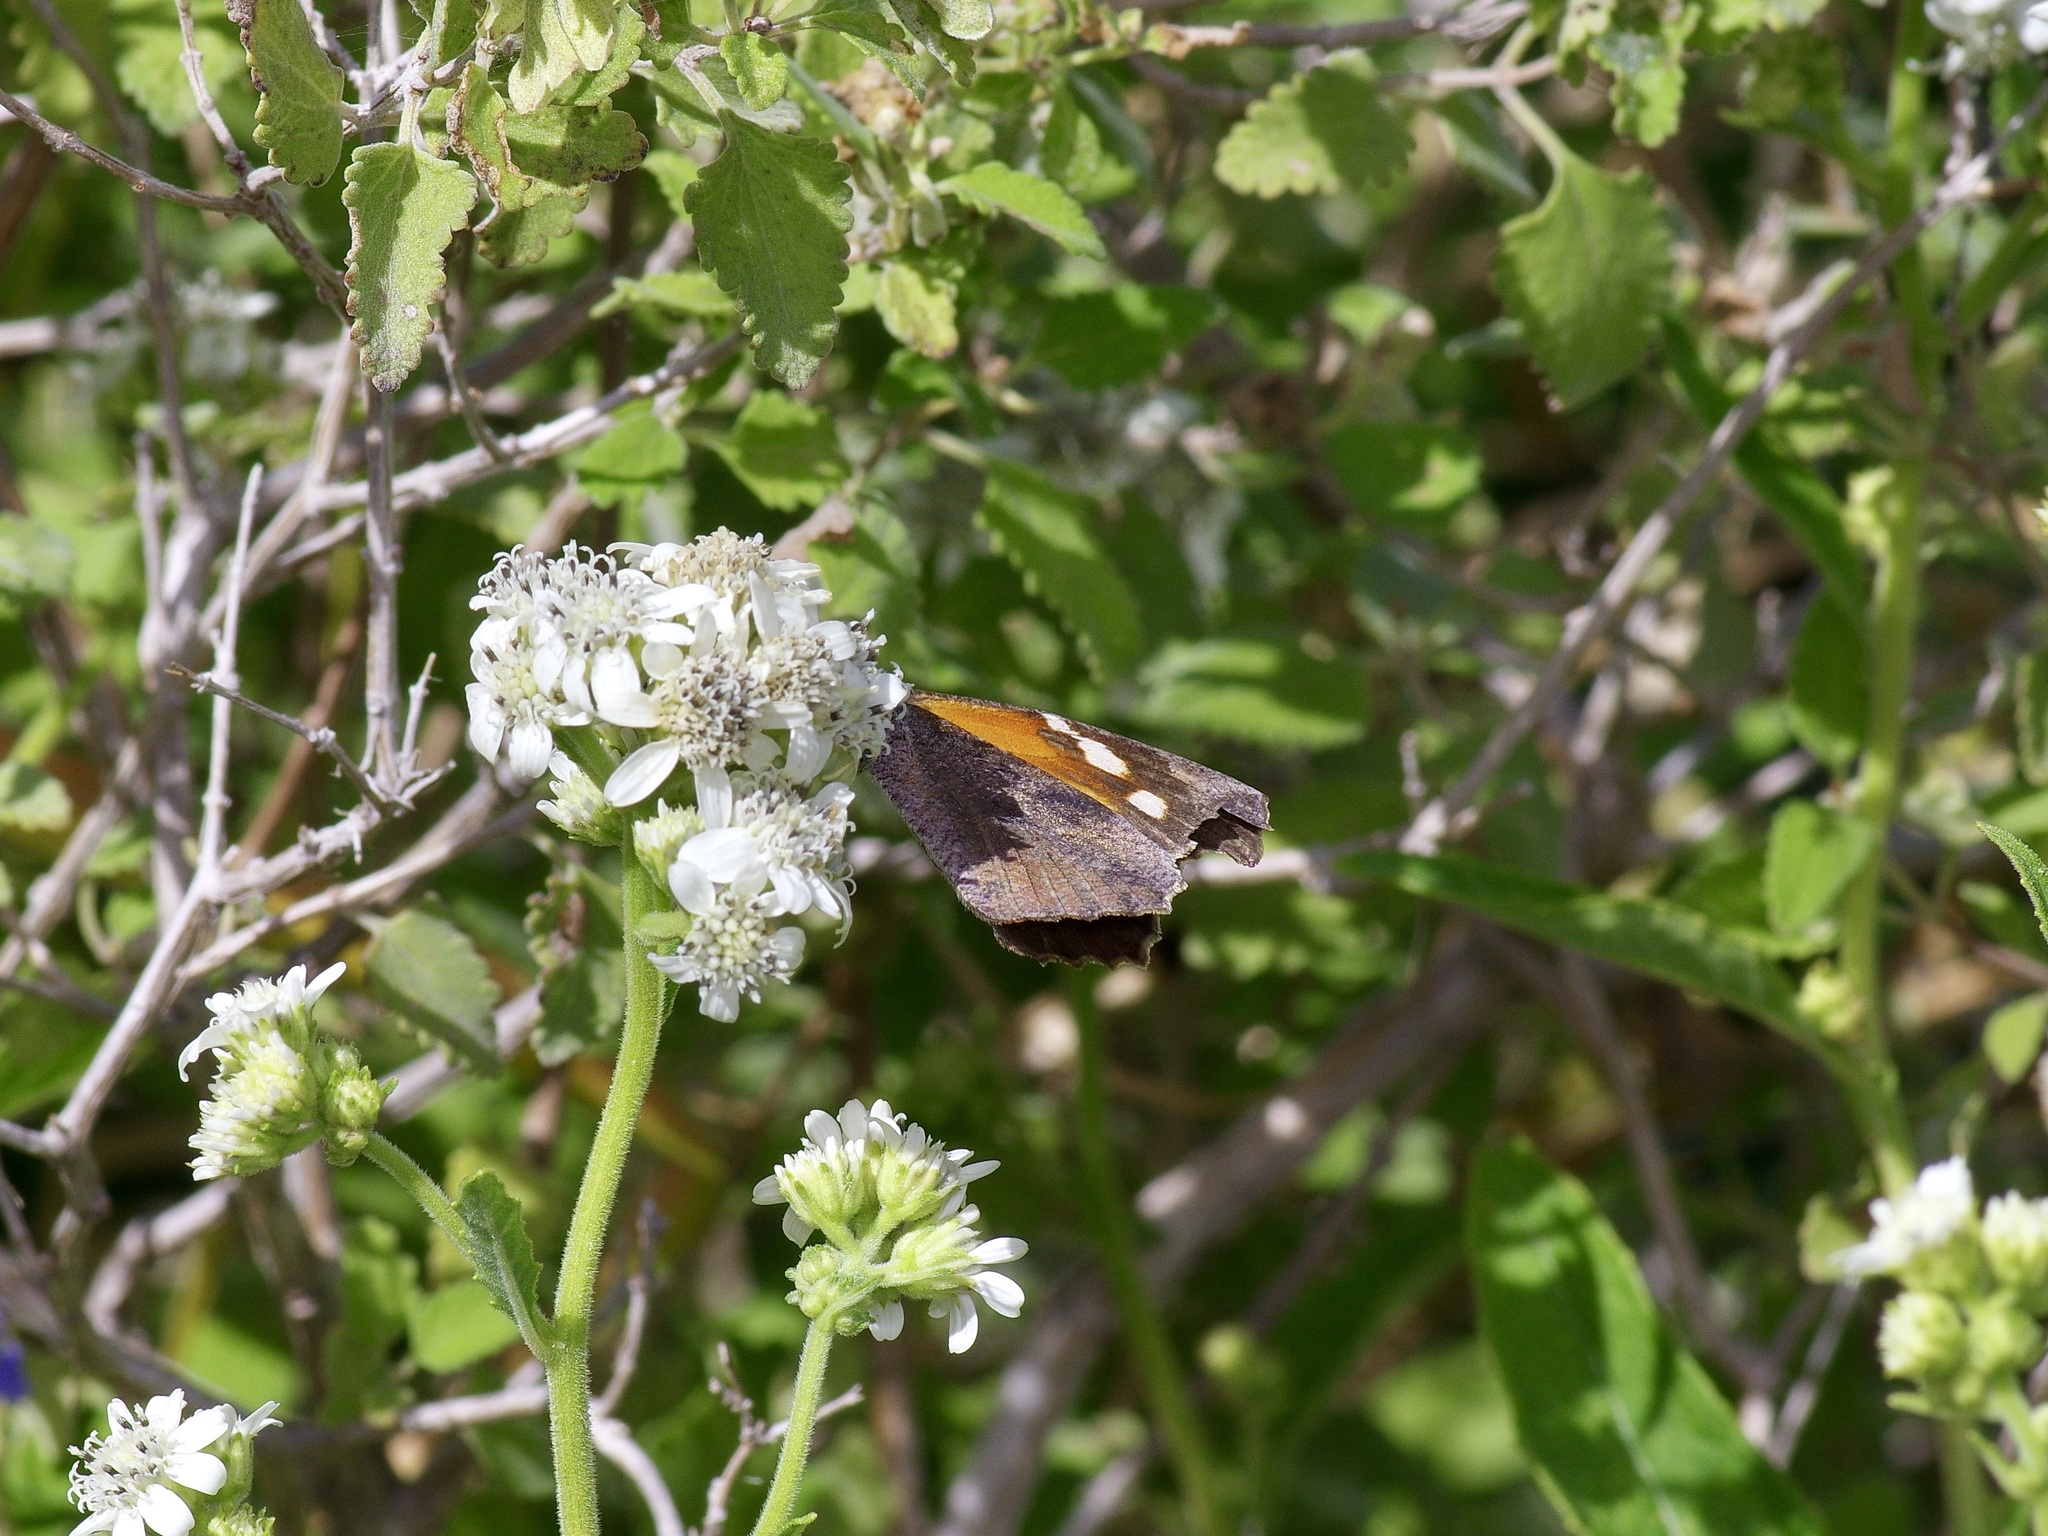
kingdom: Animalia
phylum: Arthropoda
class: Insecta
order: Lepidoptera
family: Nymphalidae
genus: Libytheana
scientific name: Libytheana carinenta
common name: American snout
